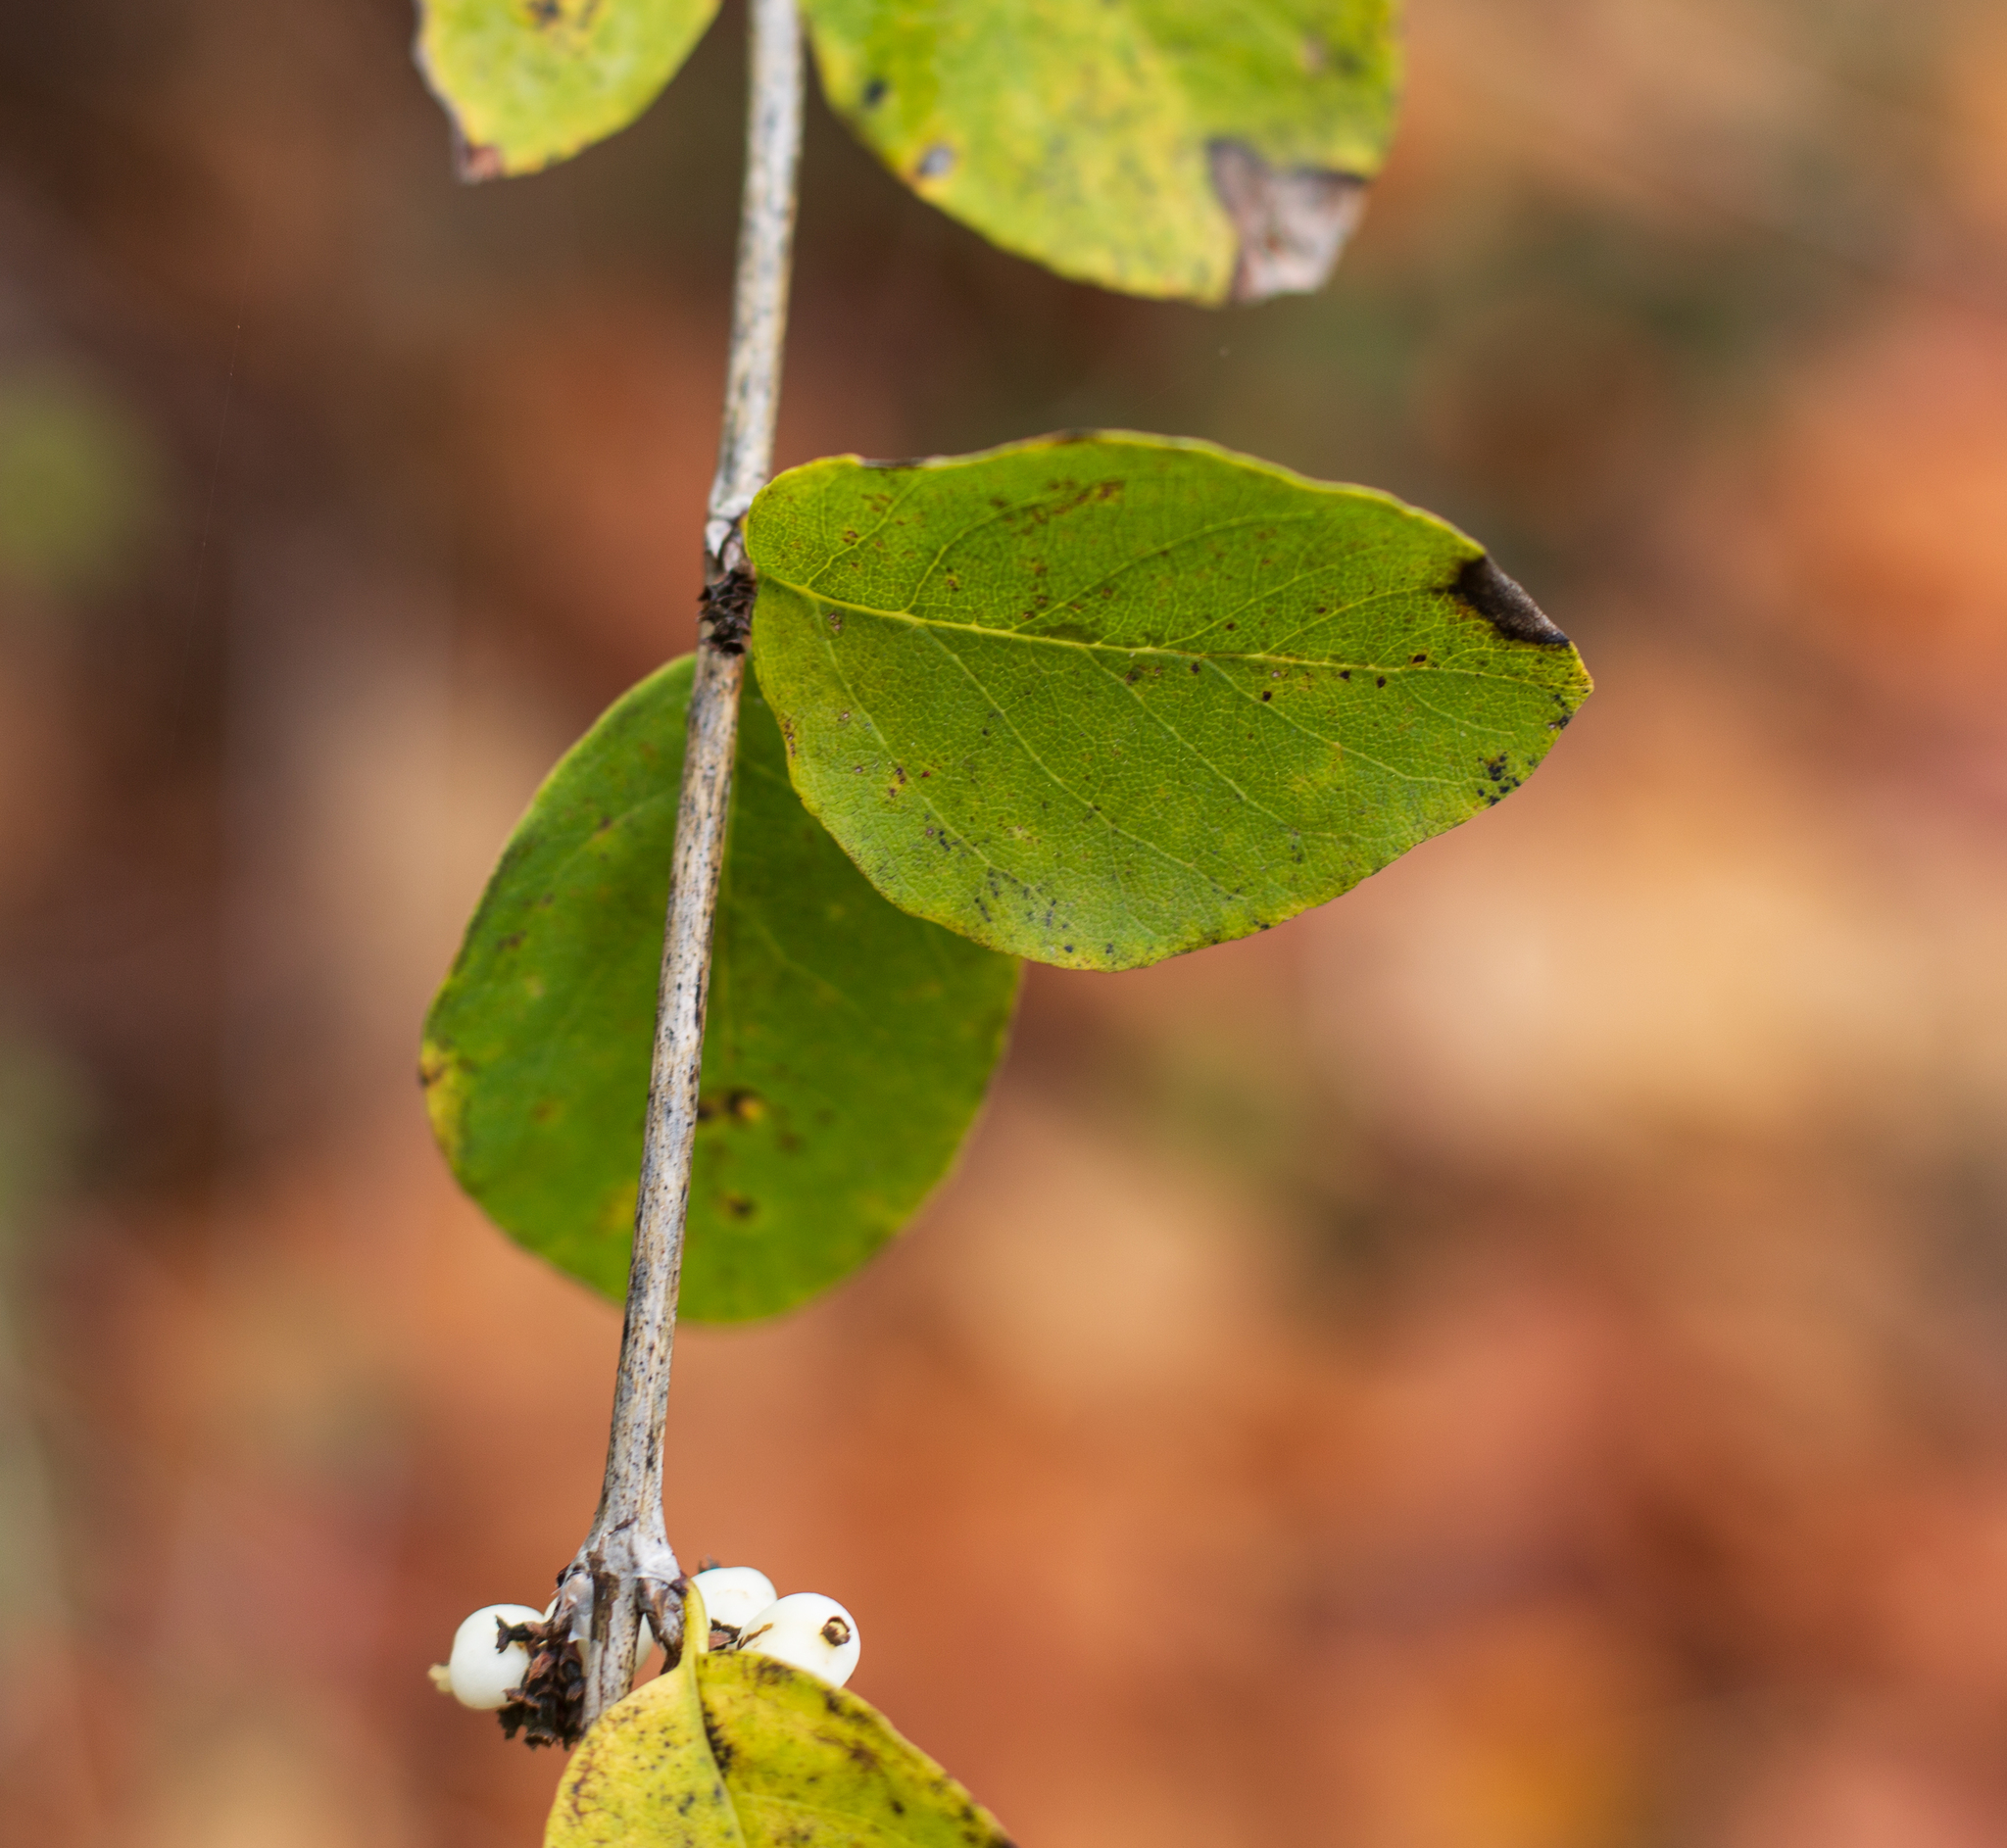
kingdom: Plantae
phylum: Tracheophyta
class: Magnoliopsida
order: Dipsacales
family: Caprifoliaceae
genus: Symphoricarpos
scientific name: Symphoricarpos albus
